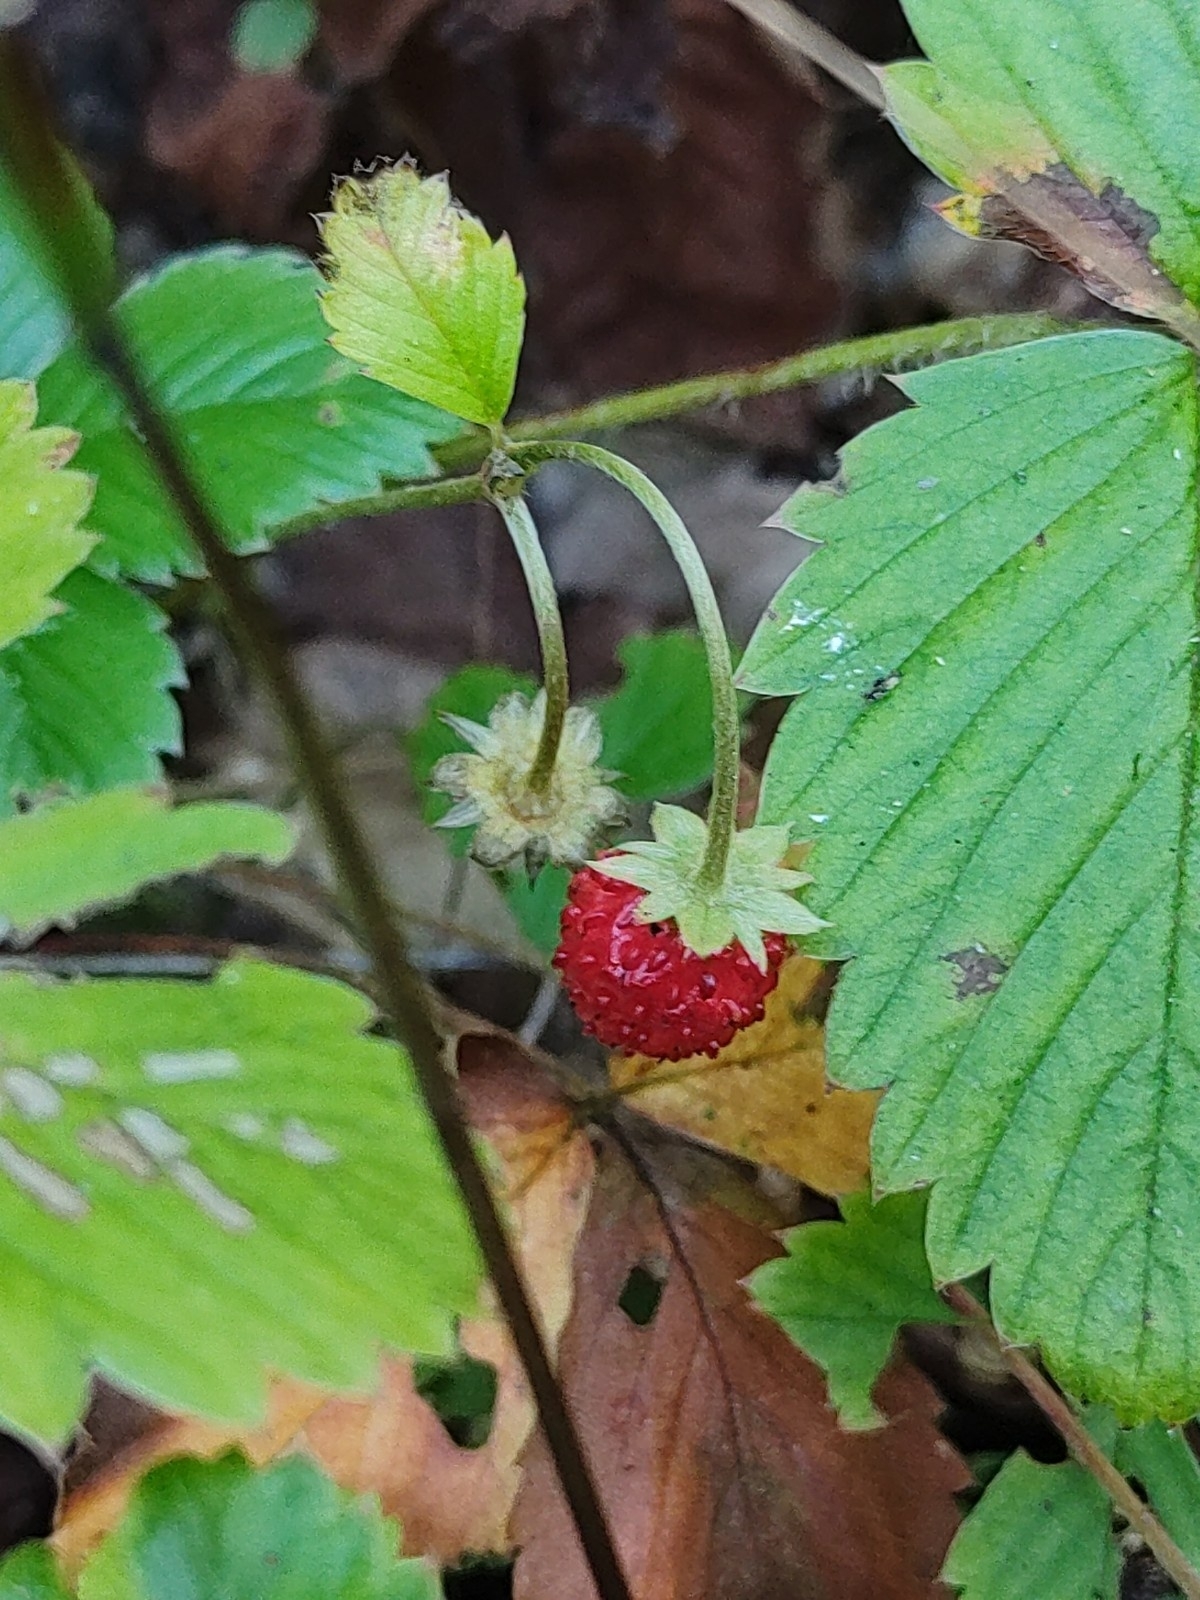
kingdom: Plantae
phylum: Tracheophyta
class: Magnoliopsida
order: Rosales
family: Rosaceae
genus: Fragaria
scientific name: Fragaria vesca
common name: Wild strawberry
